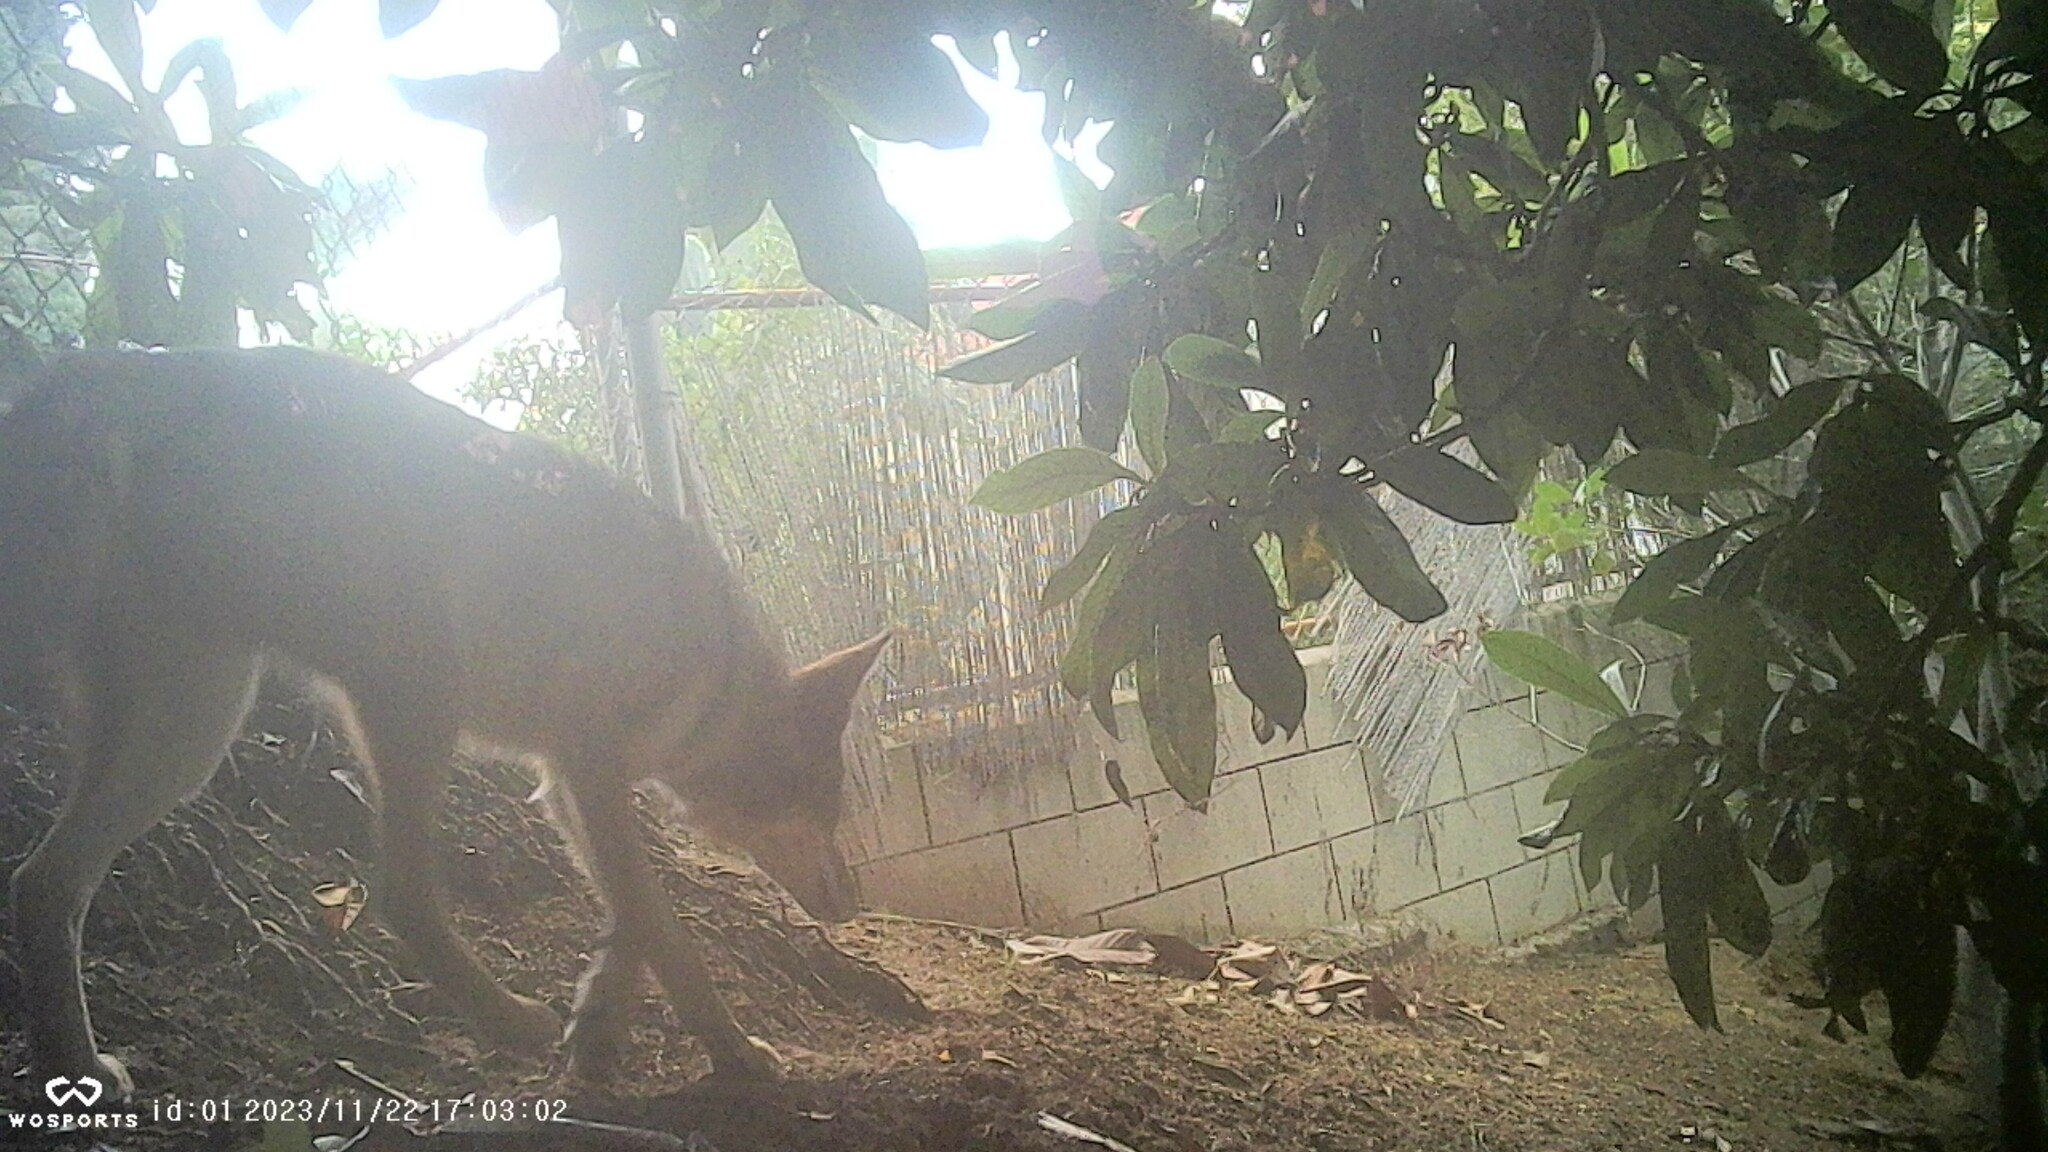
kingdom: Animalia
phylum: Chordata
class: Mammalia
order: Carnivora
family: Canidae
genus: Canis
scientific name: Canis latrans
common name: Coyote
